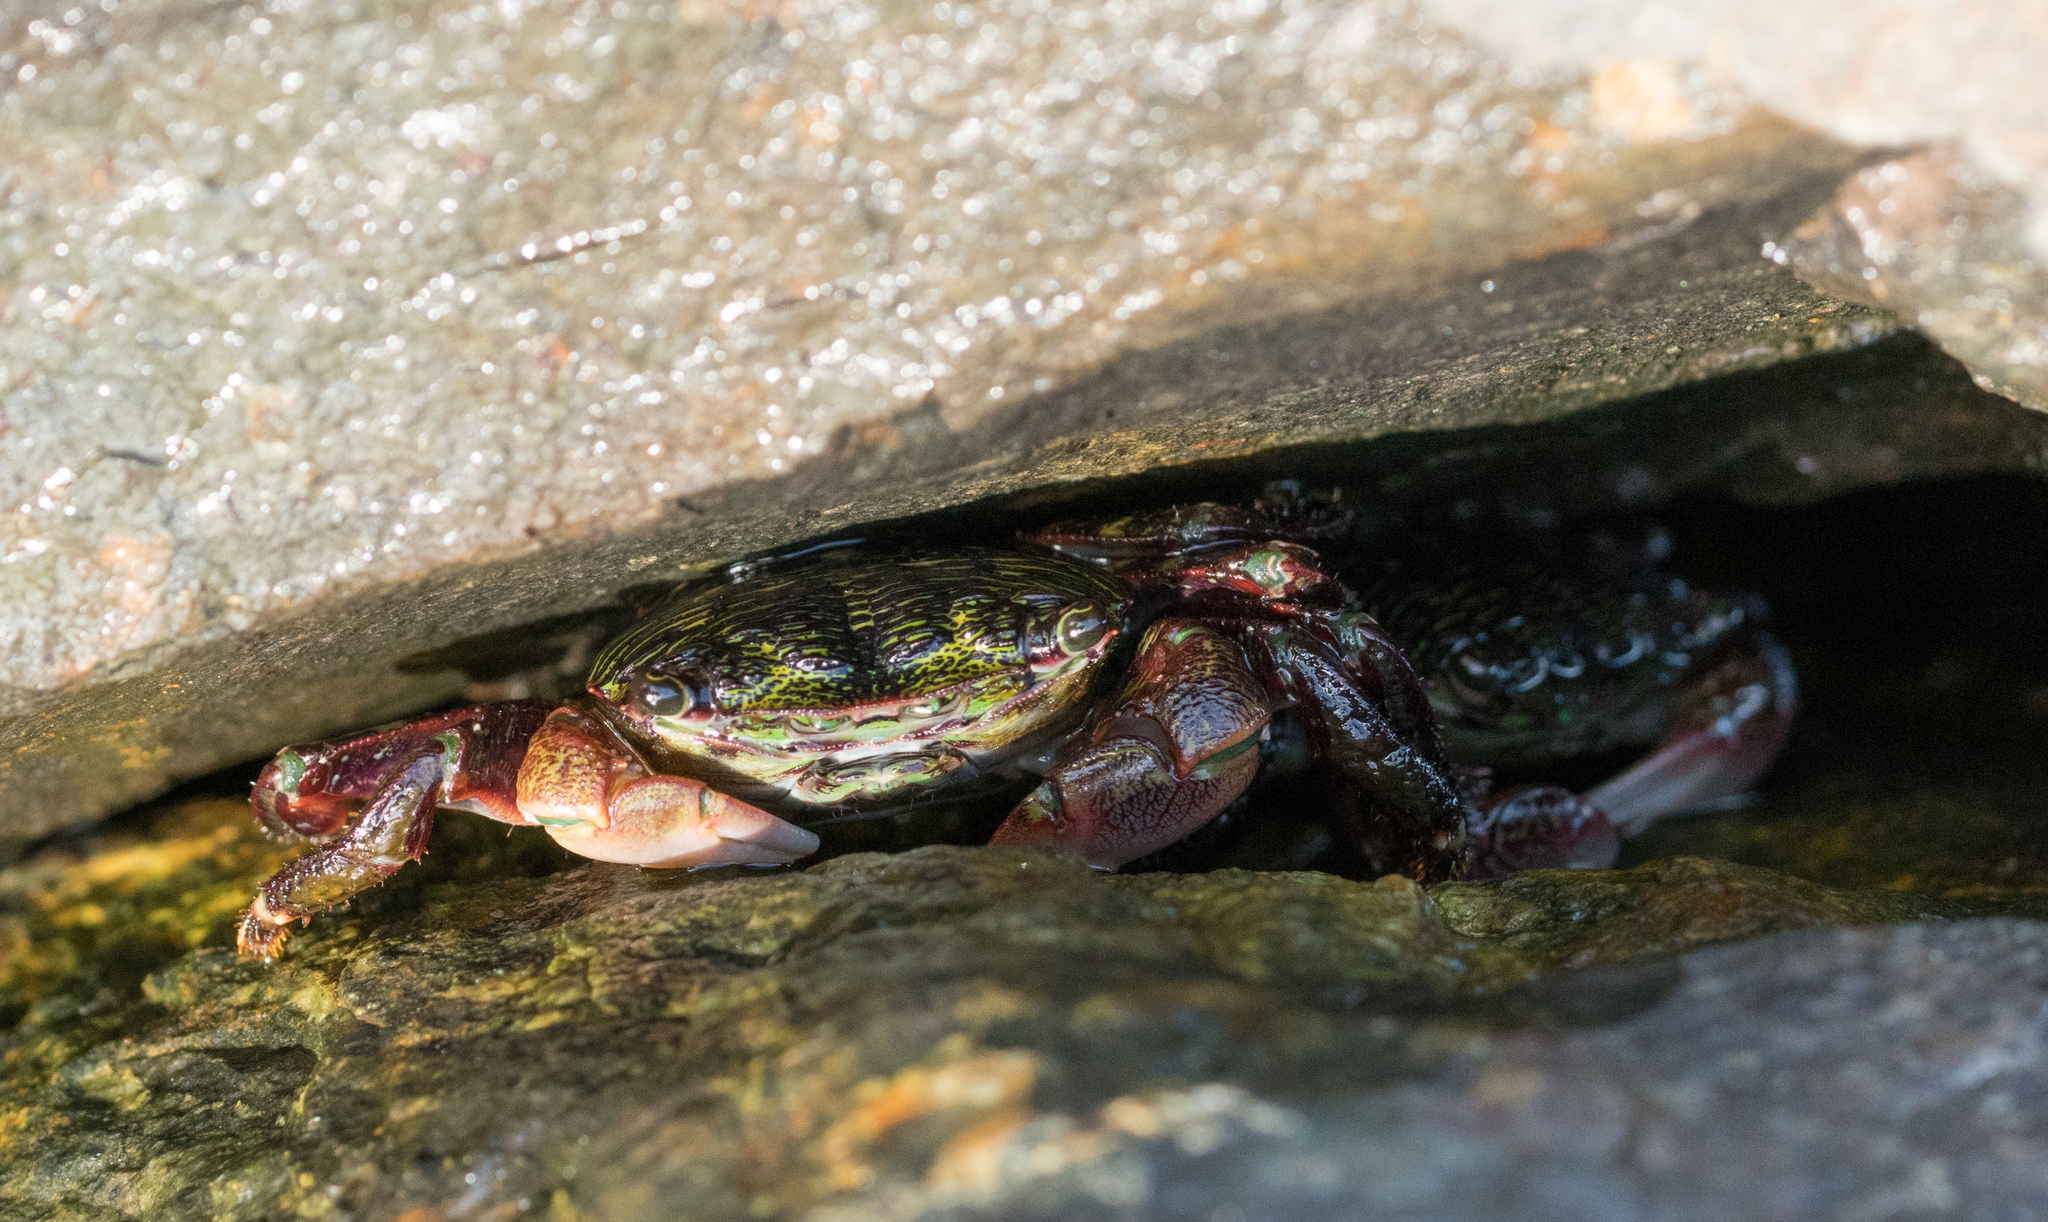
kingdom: Animalia
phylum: Arthropoda
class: Malacostraca
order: Decapoda
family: Grapsidae
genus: Pachygrapsus
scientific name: Pachygrapsus crassipes
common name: Striped shore crab
